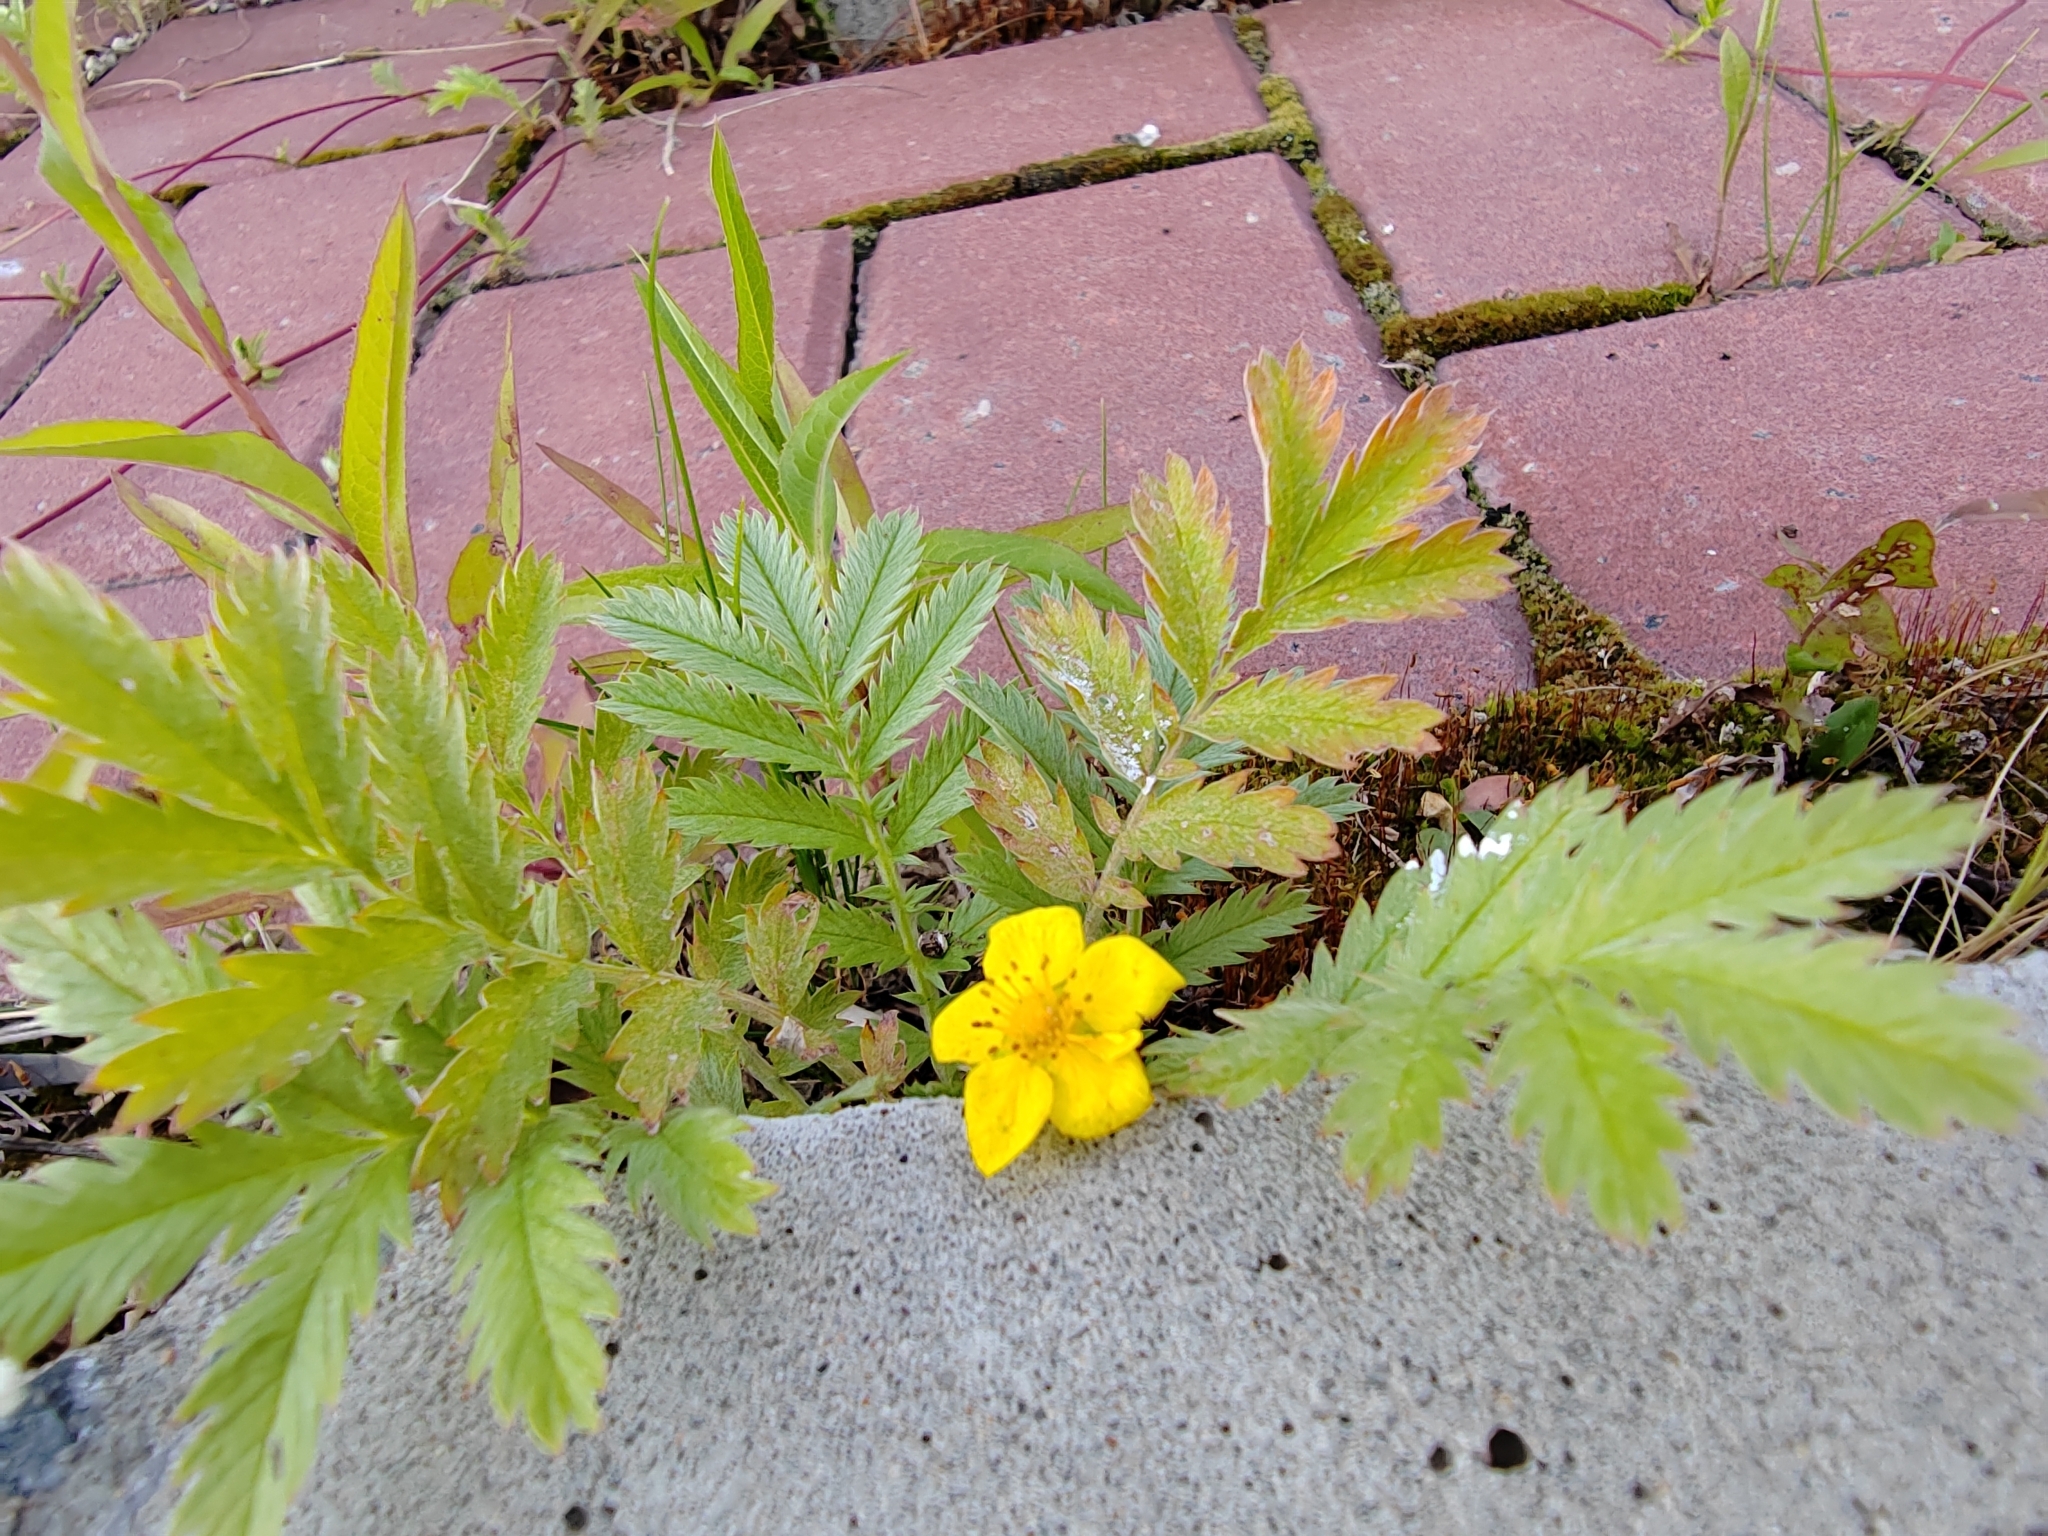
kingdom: Plantae
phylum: Tracheophyta
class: Magnoliopsida
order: Rosales
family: Rosaceae
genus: Argentina
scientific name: Argentina anserina
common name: Common silverweed
